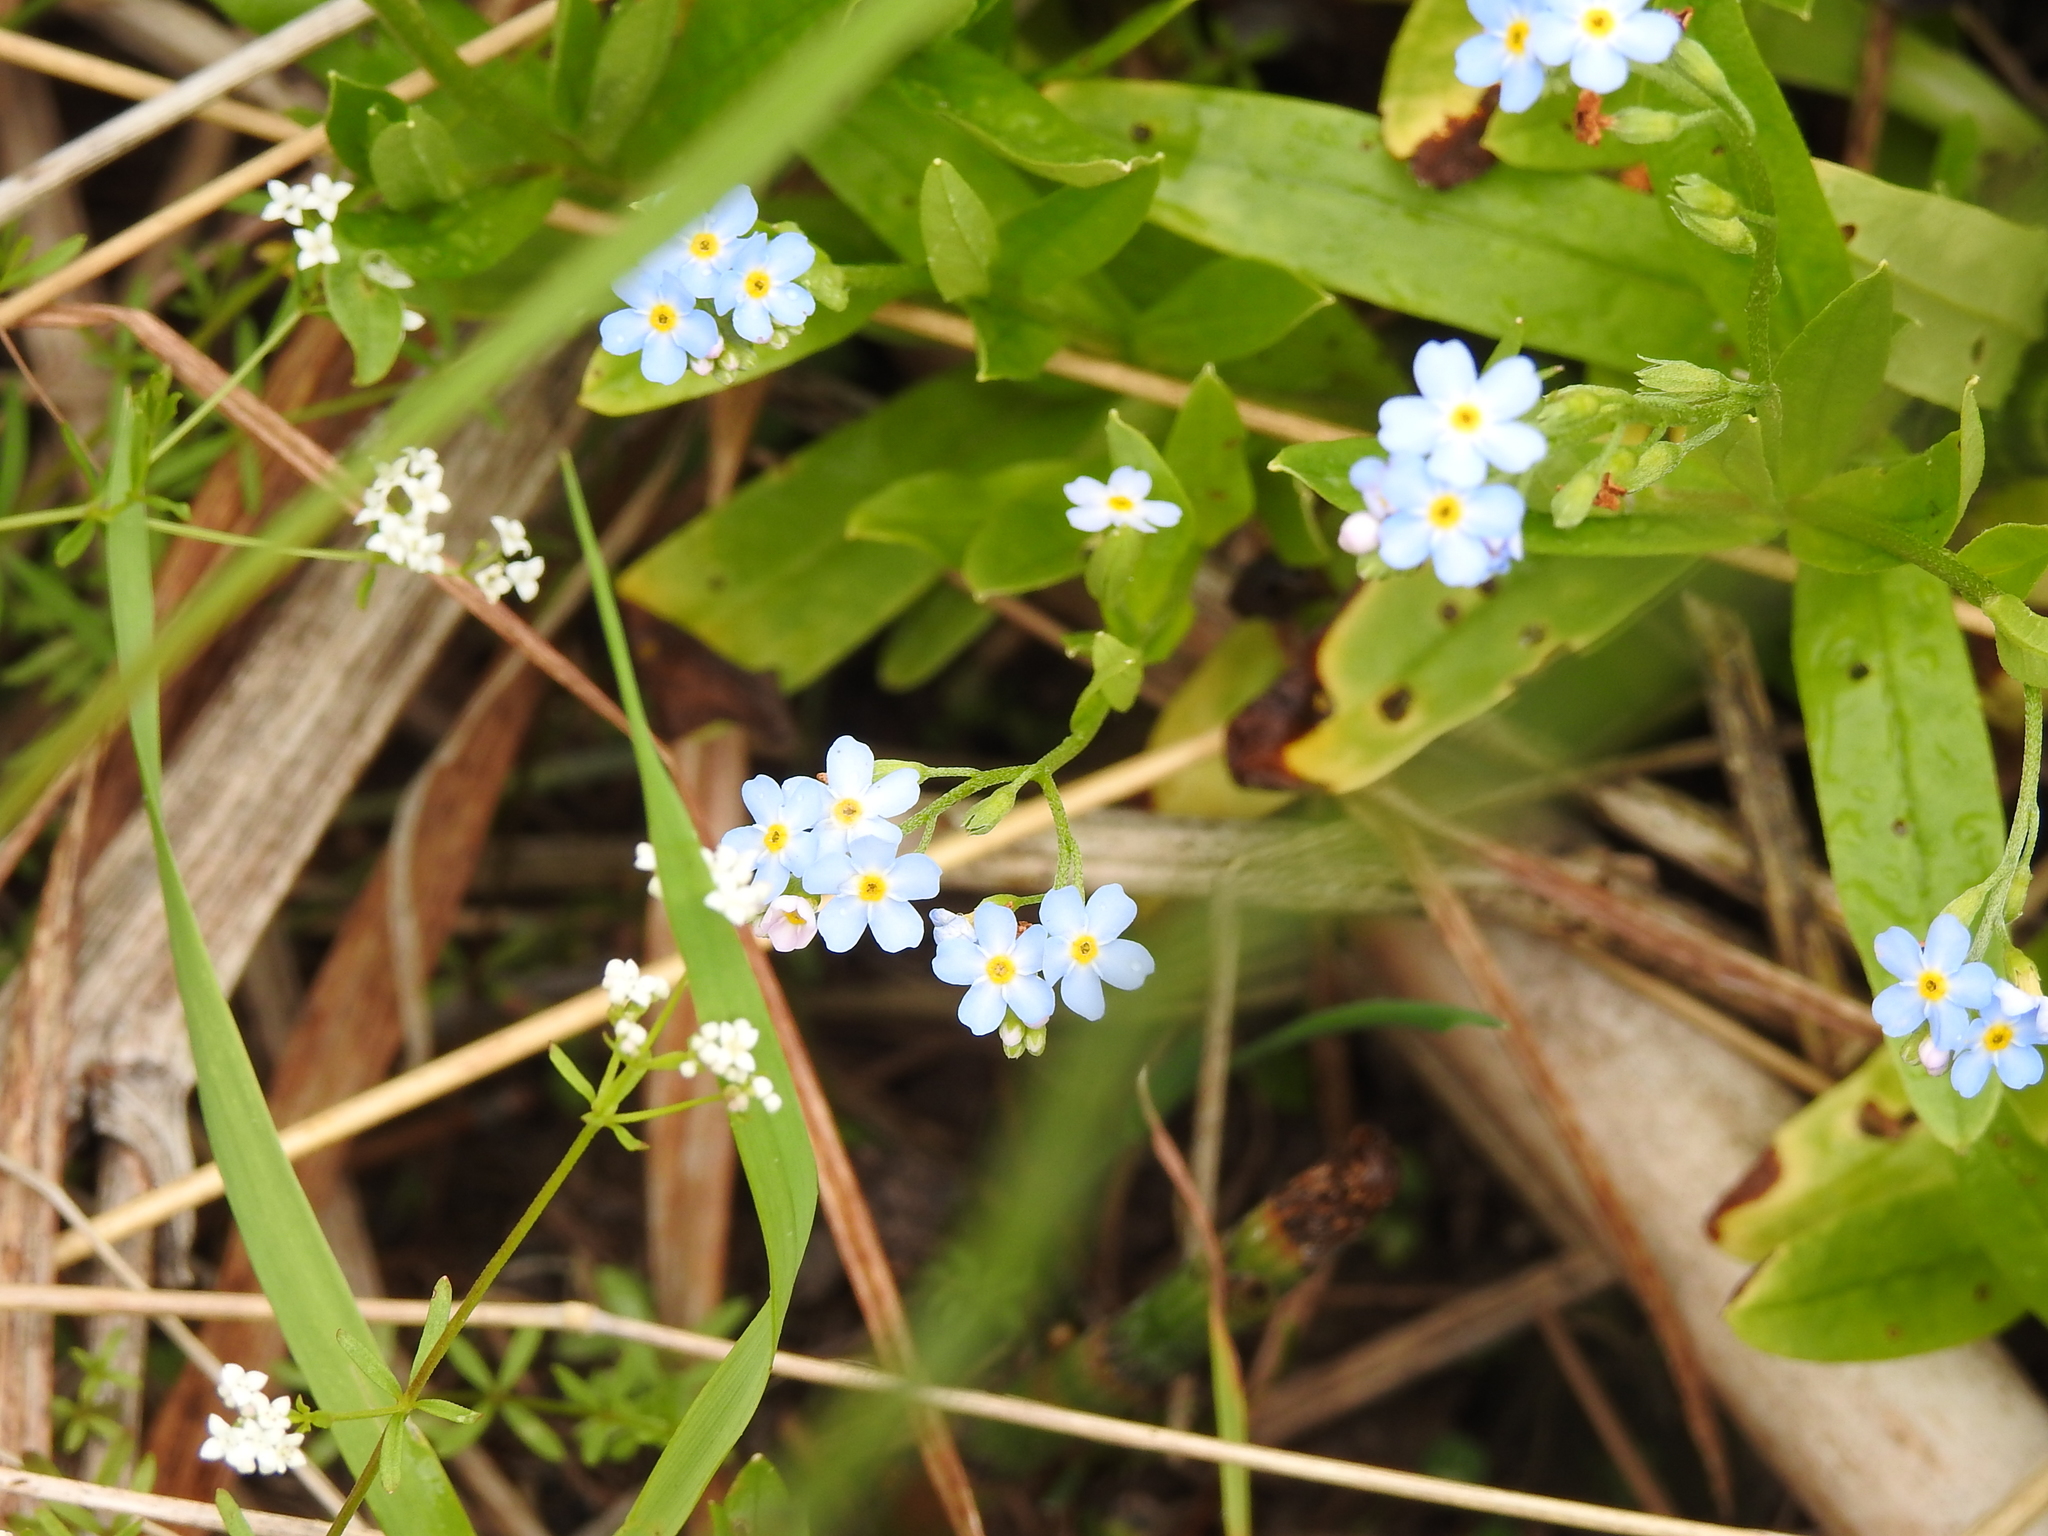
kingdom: Plantae
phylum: Tracheophyta
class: Magnoliopsida
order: Boraginales
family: Boraginaceae
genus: Myosotis
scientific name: Myosotis scorpioides
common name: Water forget-me-not
